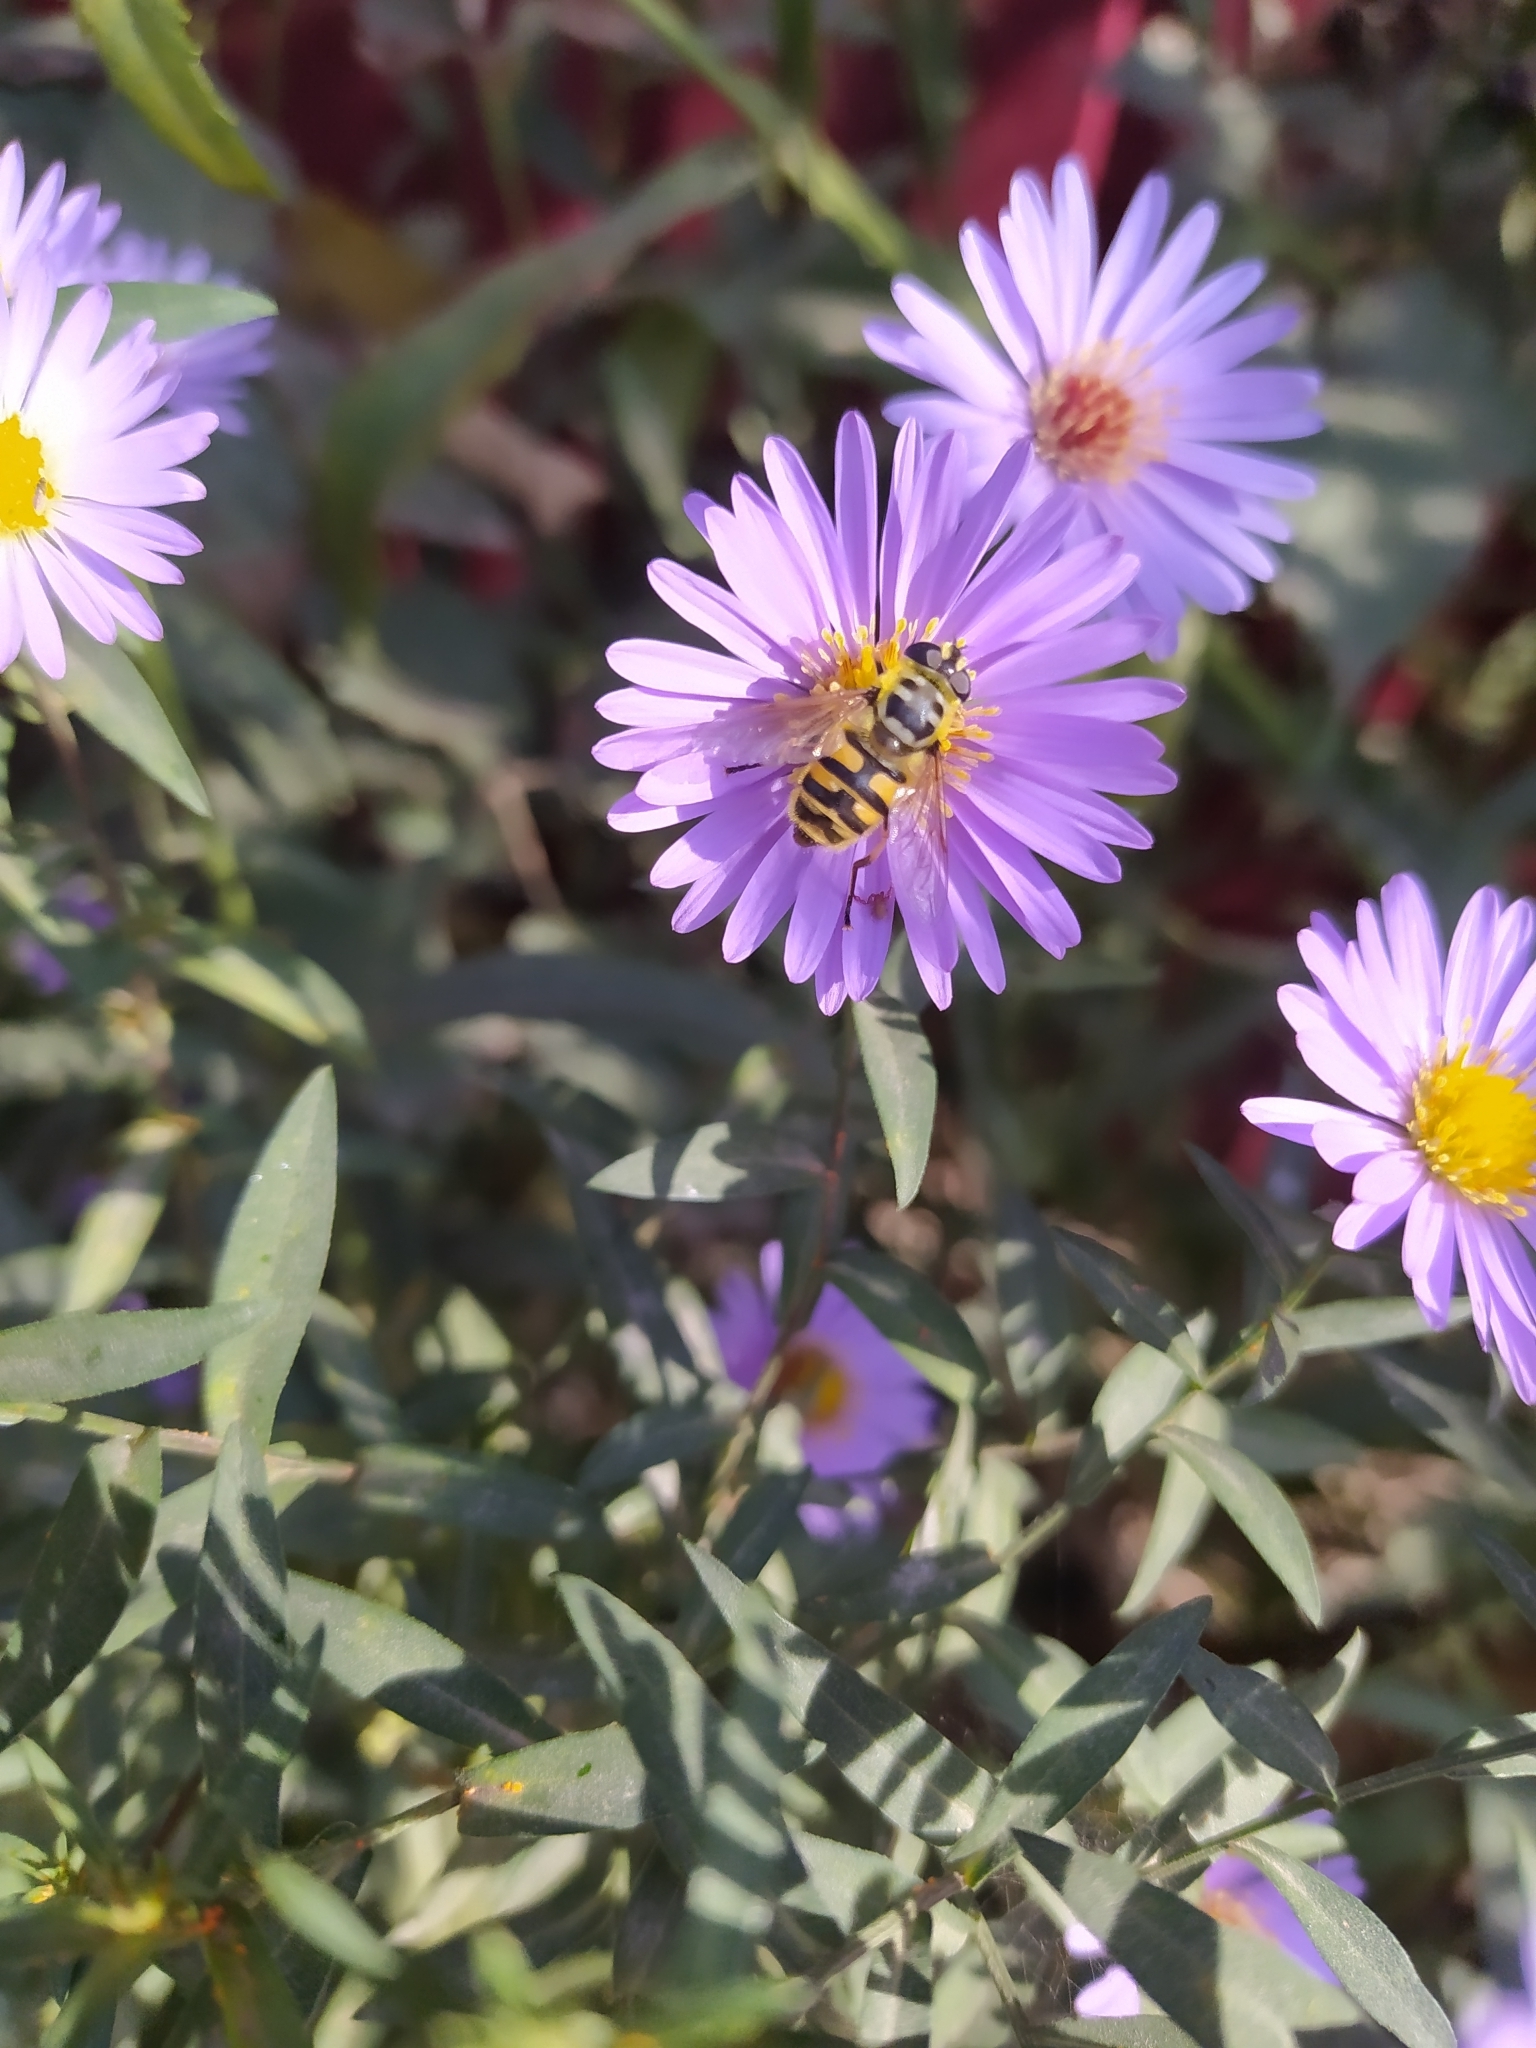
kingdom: Animalia
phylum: Arthropoda
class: Insecta
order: Diptera
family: Syrphidae
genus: Myathropa
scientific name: Myathropa florea
